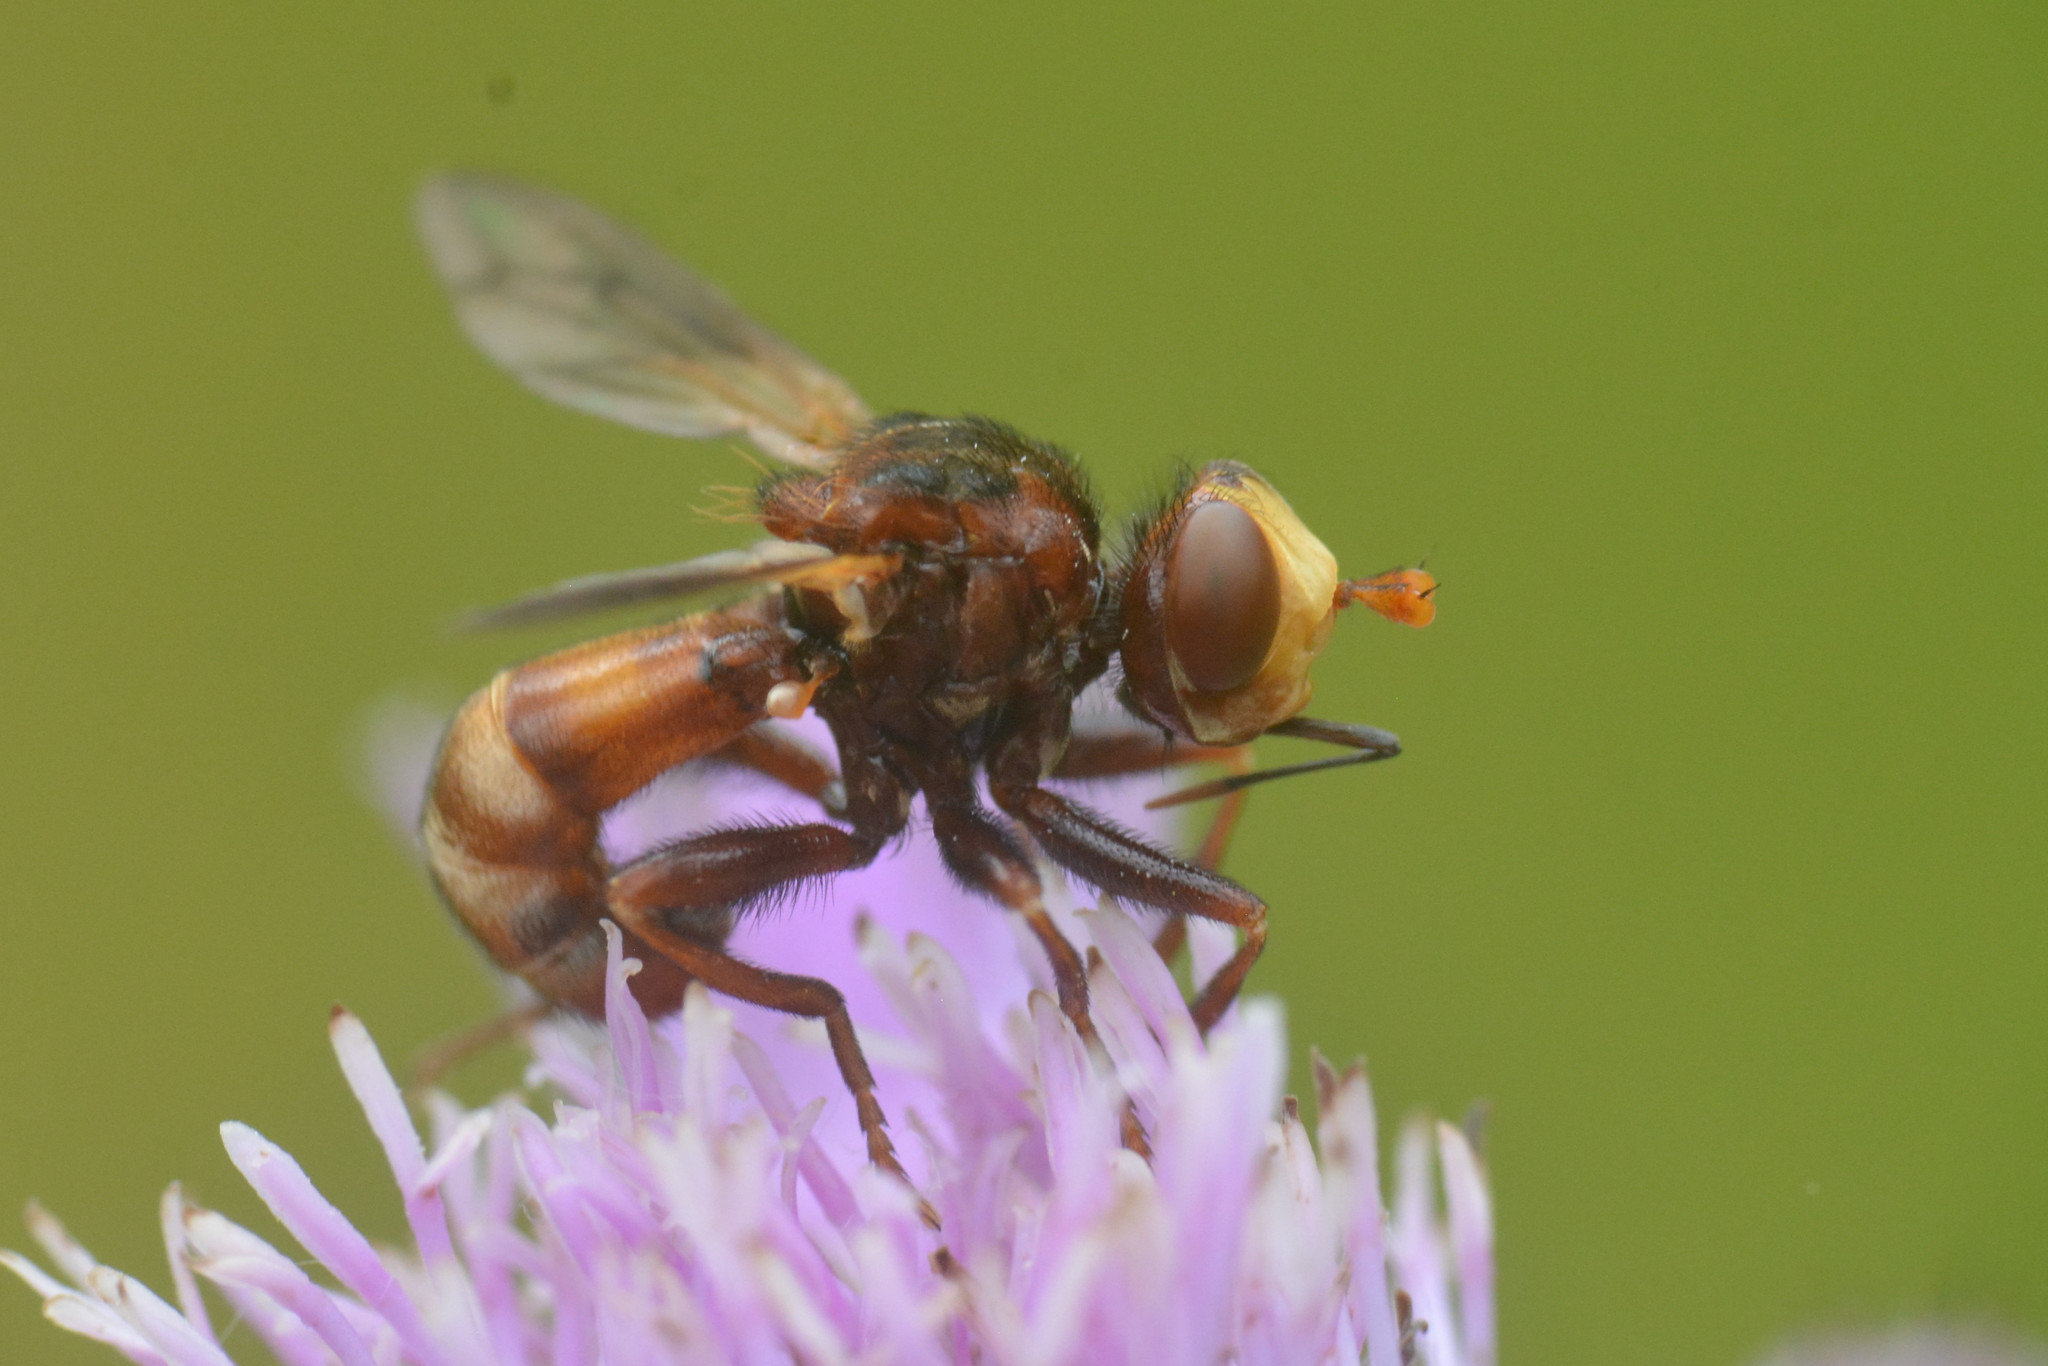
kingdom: Animalia
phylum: Arthropoda
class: Insecta
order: Diptera
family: Conopidae
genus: Sicus
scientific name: Sicus ferrugineus
